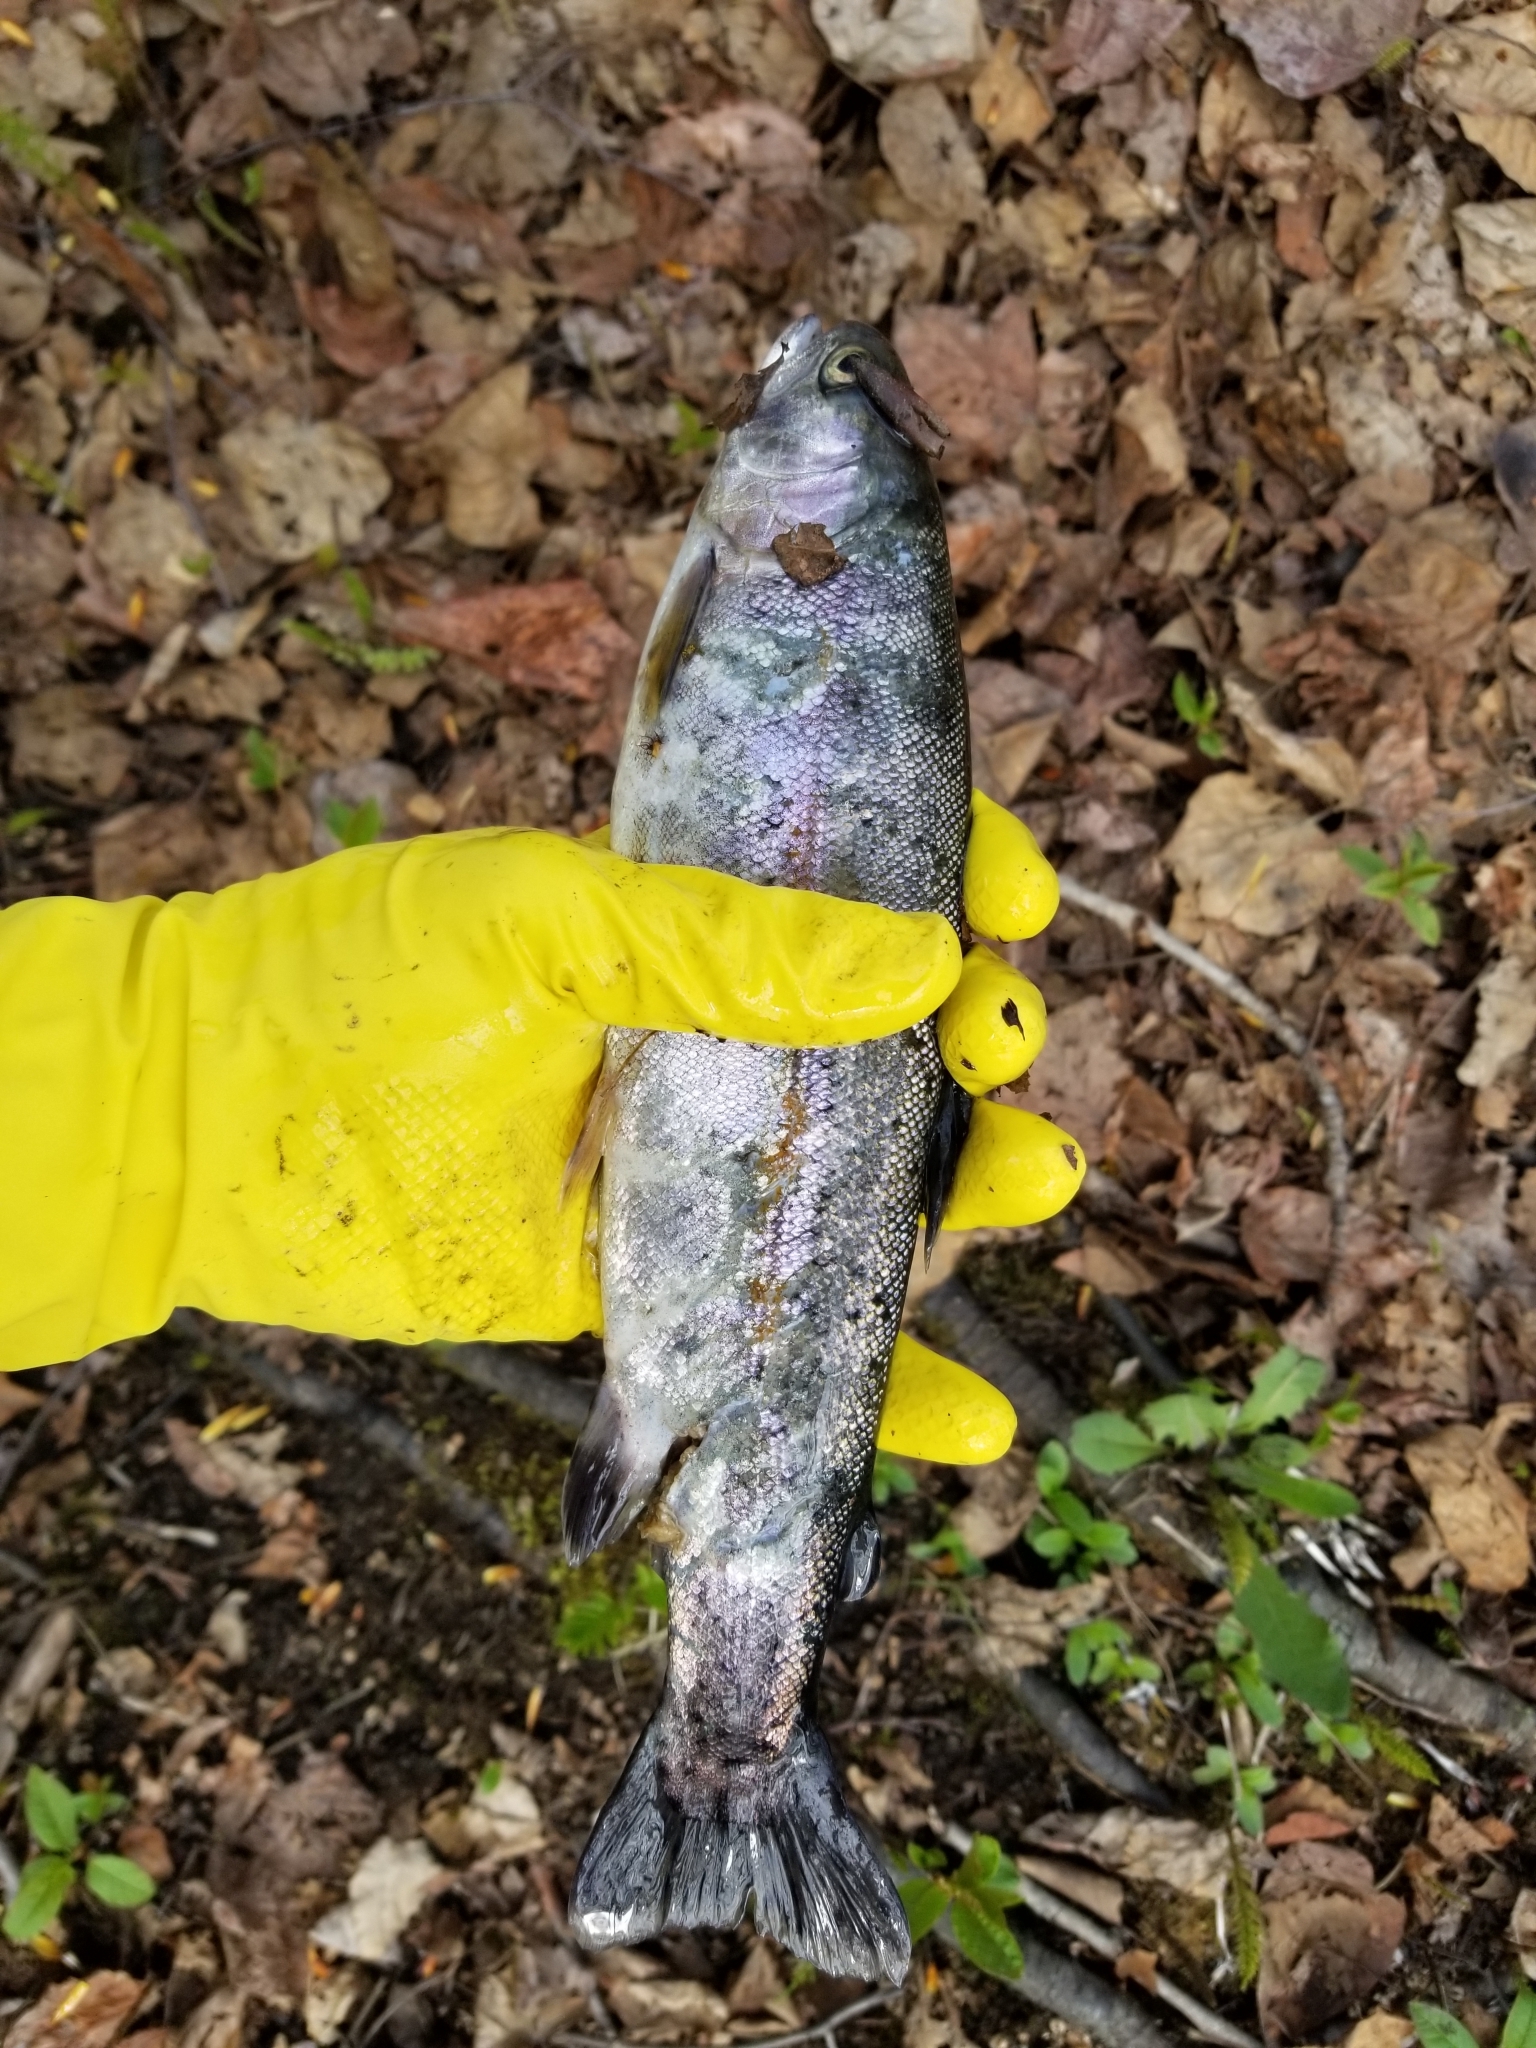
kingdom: Animalia
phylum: Chordata
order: Salmoniformes
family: Salmonidae
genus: Oncorhynchus
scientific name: Oncorhynchus mykiss
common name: Rainbow trout
